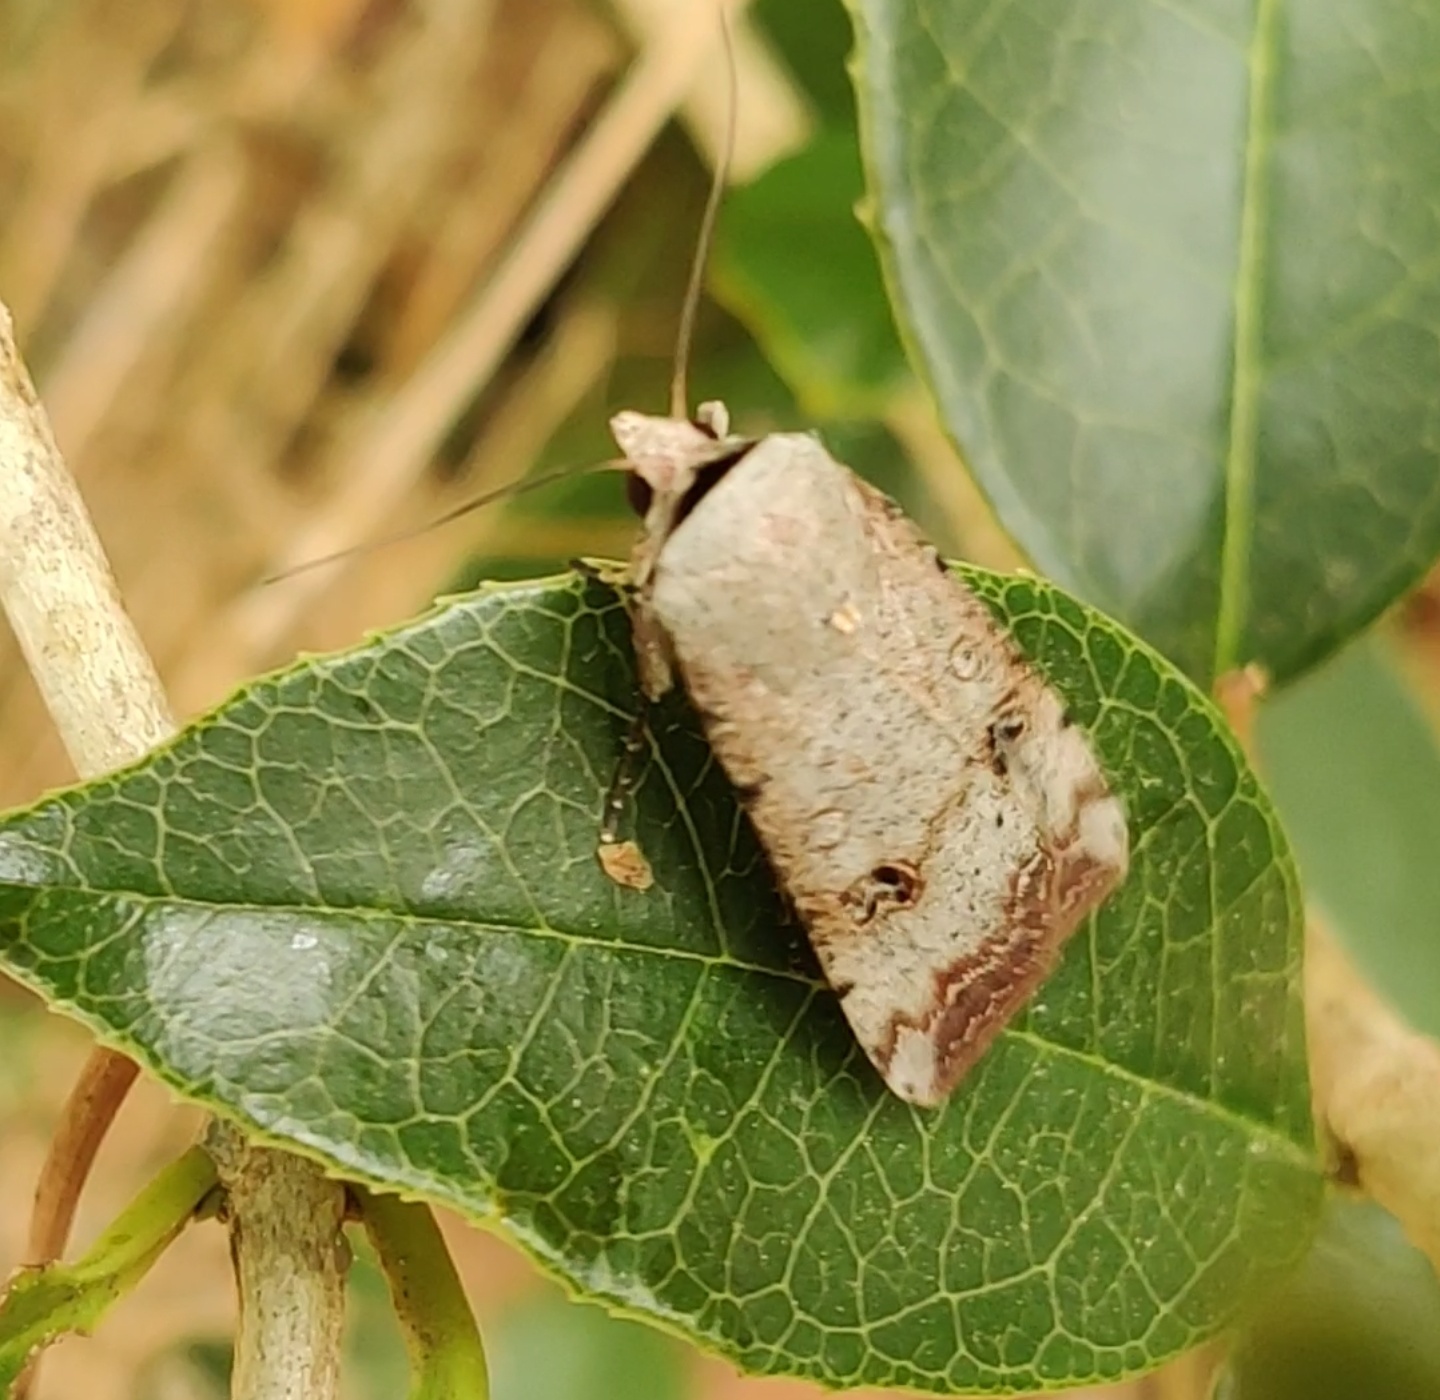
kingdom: Animalia
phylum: Arthropoda
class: Insecta
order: Lepidoptera
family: Noctuidae
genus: Anicla
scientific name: Anicla infecta
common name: Green cutworm
